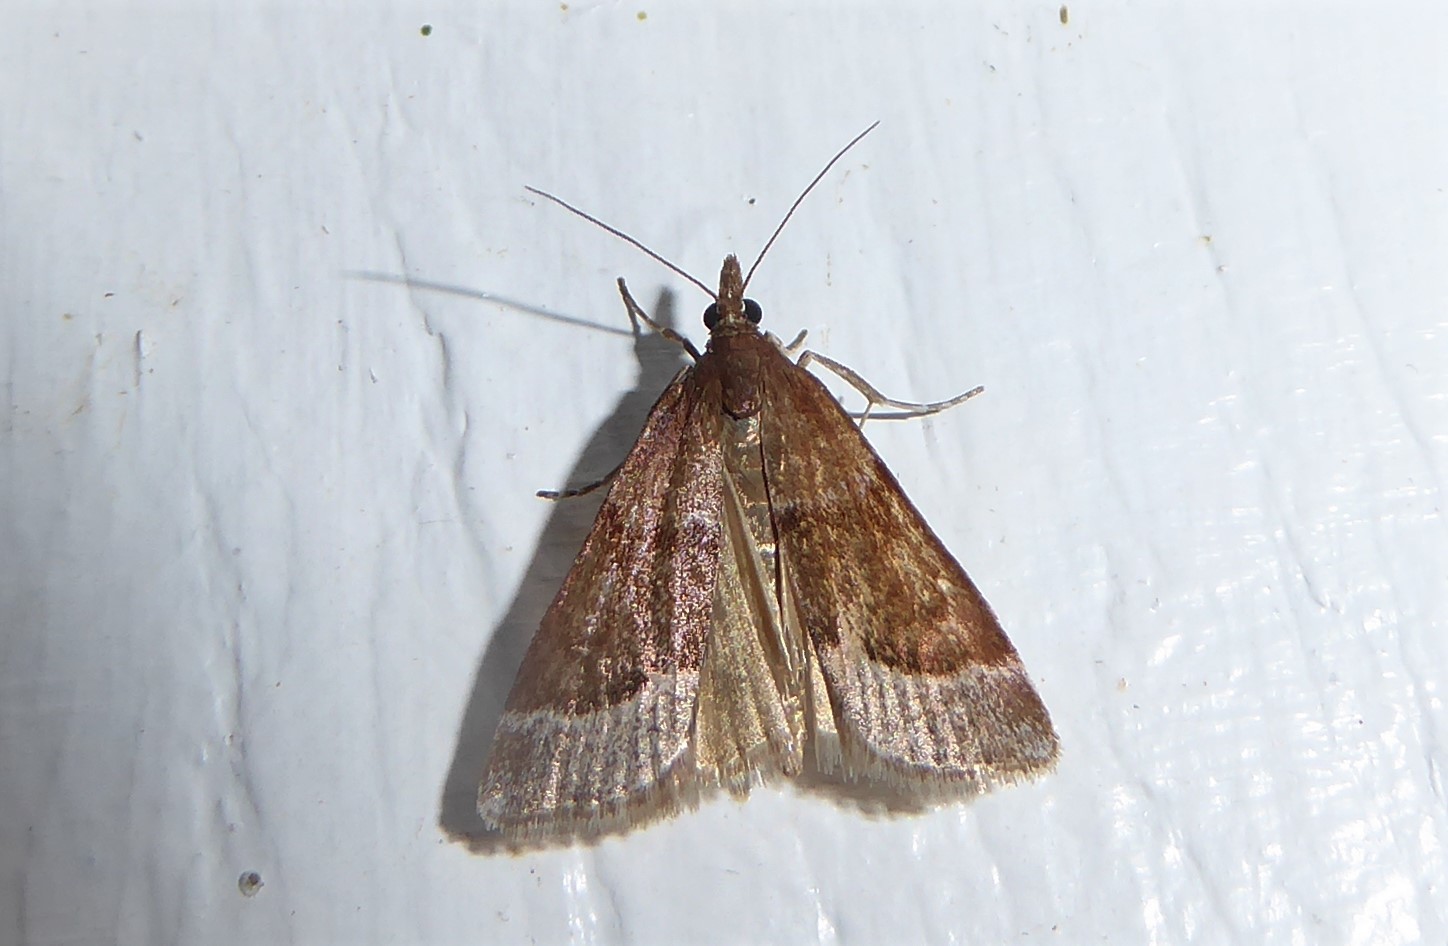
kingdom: Animalia
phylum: Arthropoda
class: Insecta
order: Lepidoptera
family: Crambidae
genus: Eudonia
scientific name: Eudonia feredayi
